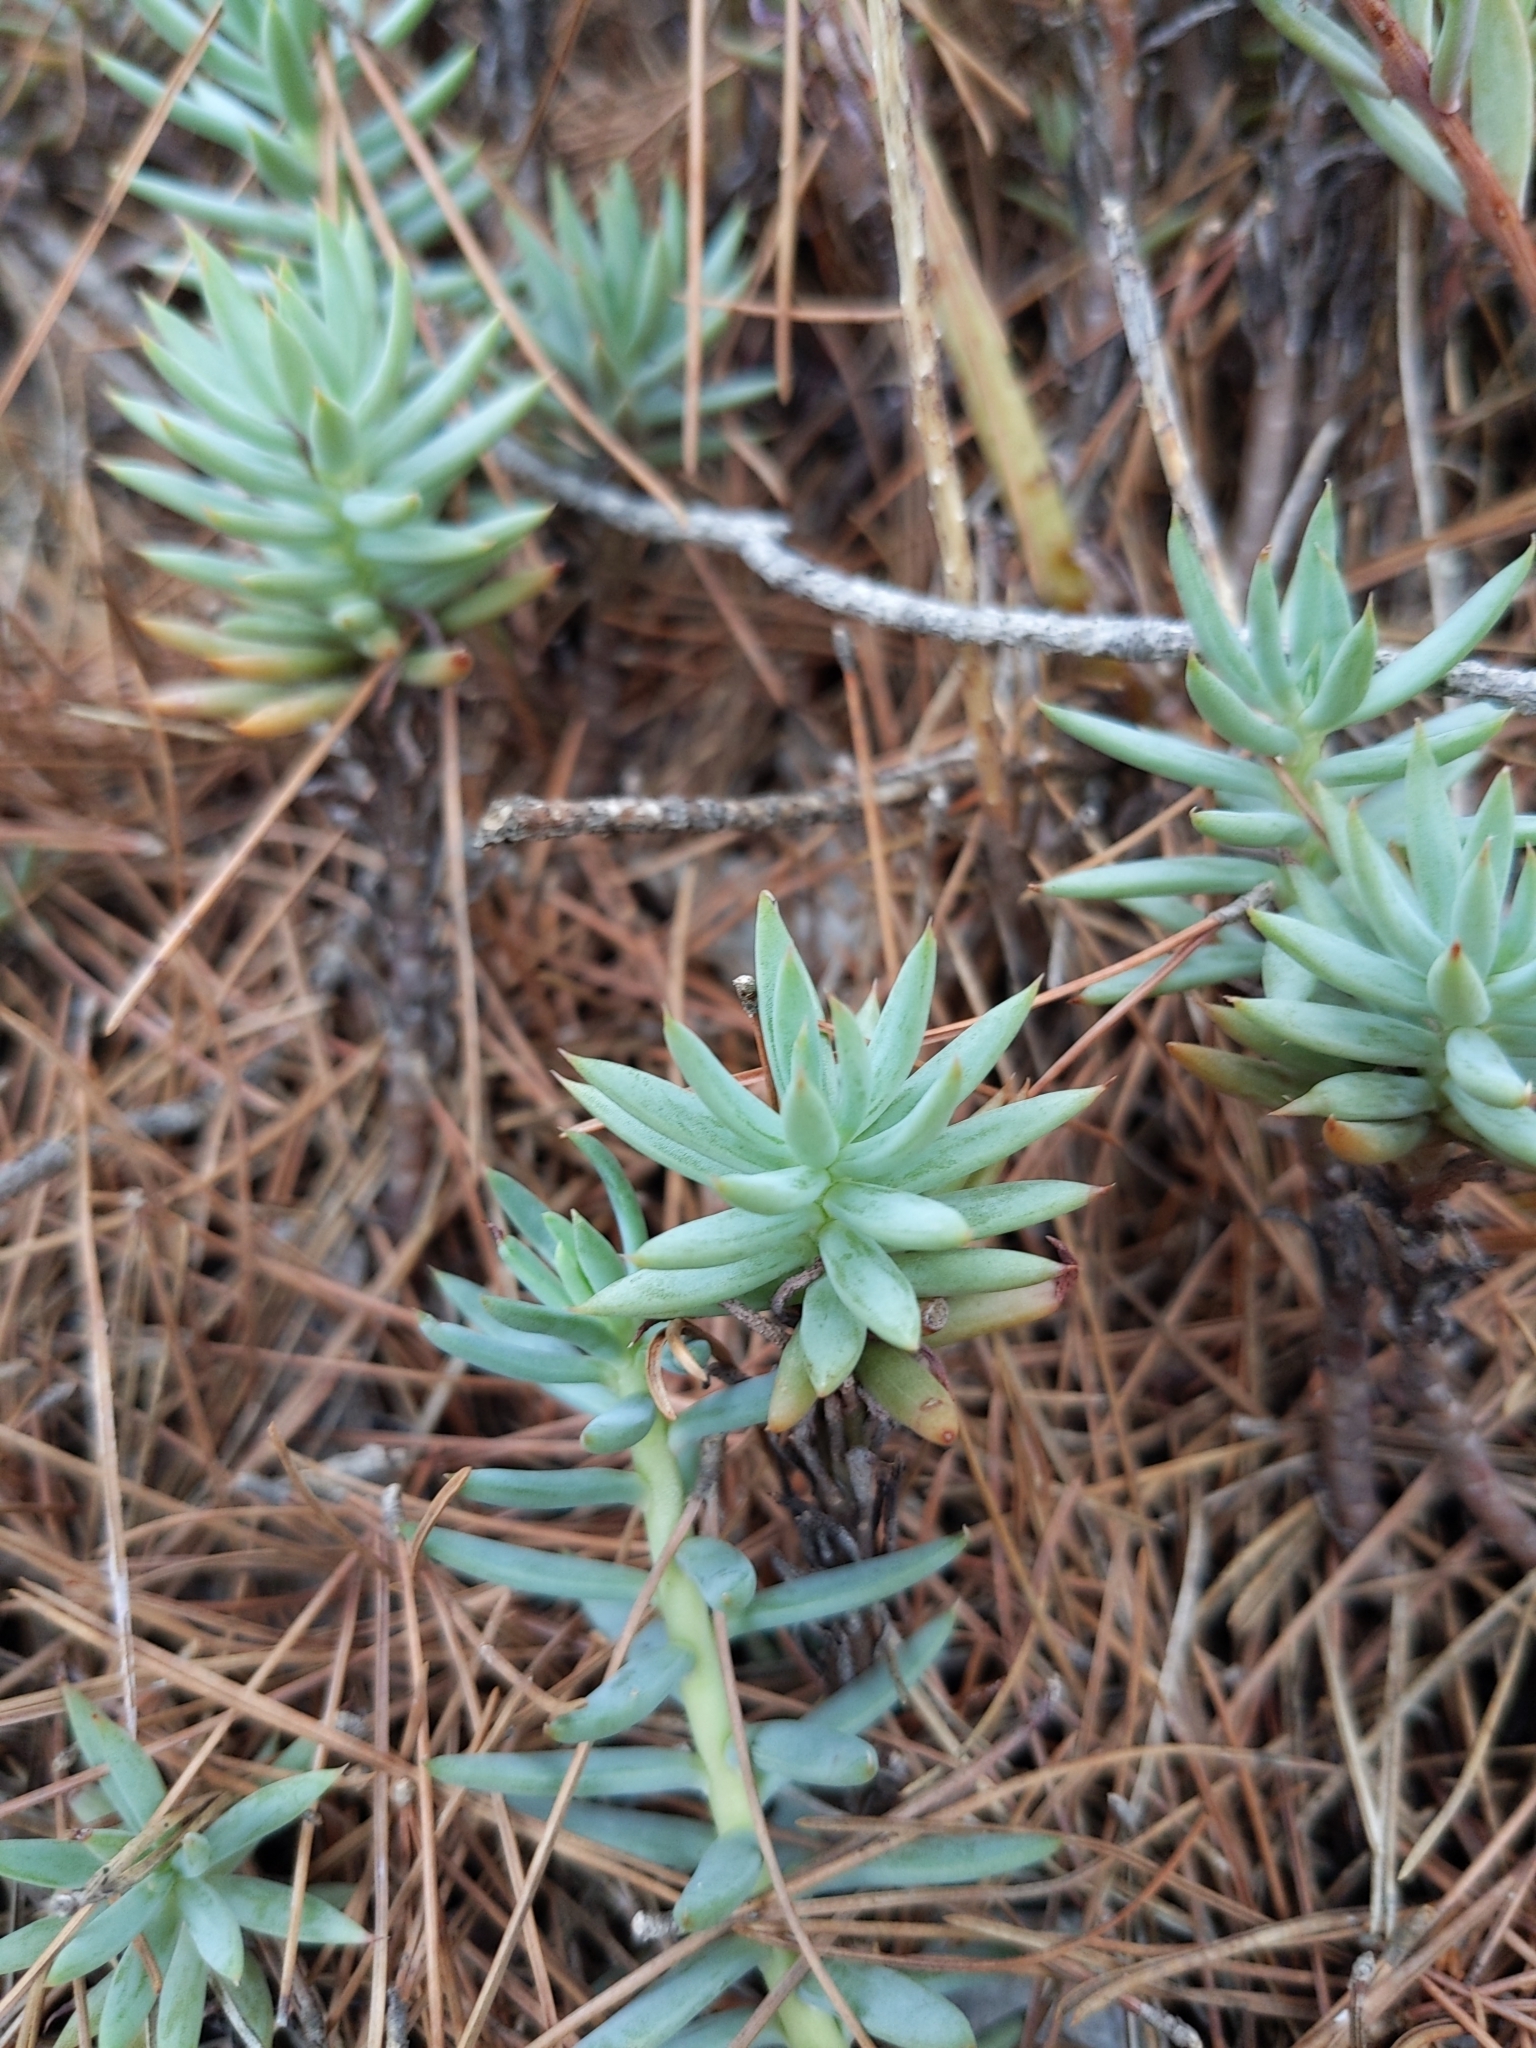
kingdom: Plantae
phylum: Tracheophyta
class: Magnoliopsida
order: Saxifragales
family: Crassulaceae
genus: Petrosedum
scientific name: Petrosedum sediforme
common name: Pale stonecrop
